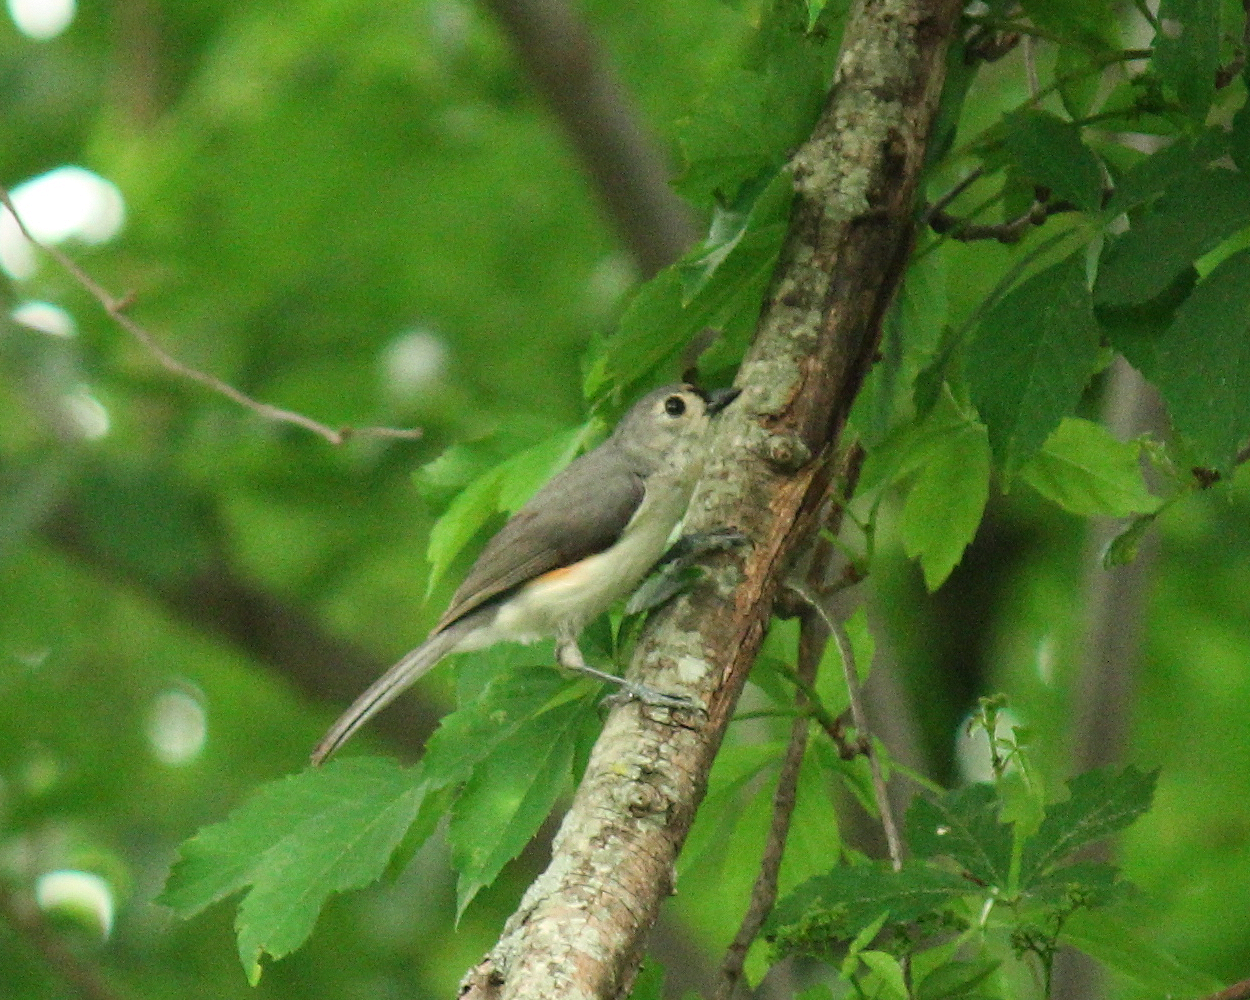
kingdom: Animalia
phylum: Chordata
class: Aves
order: Passeriformes
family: Paridae
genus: Baeolophus
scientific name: Baeolophus bicolor
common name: Tufted titmouse
